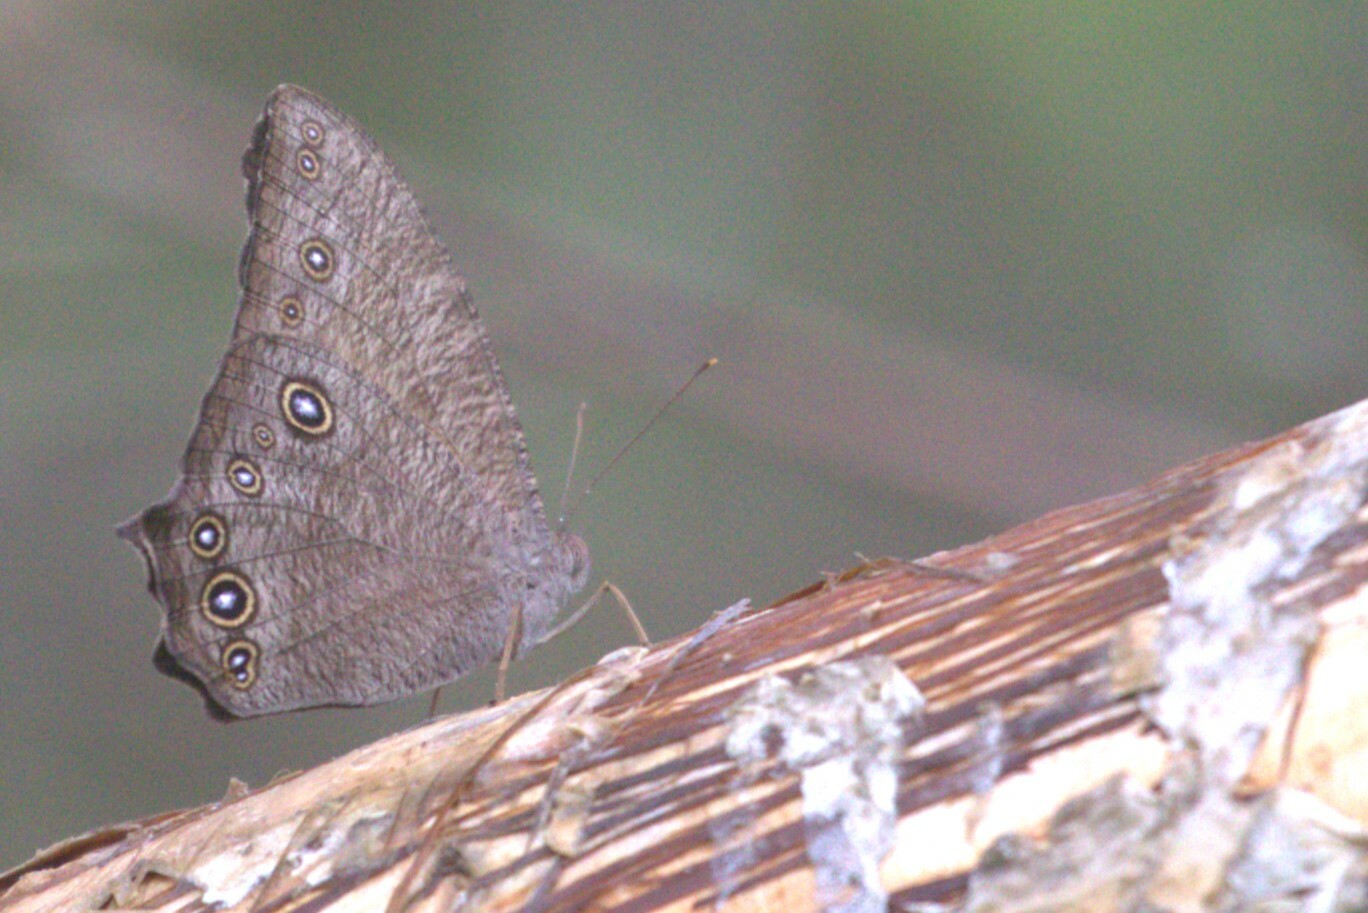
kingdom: Animalia
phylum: Arthropoda
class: Insecta
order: Lepidoptera
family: Nymphalidae
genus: Melanitis
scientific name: Melanitis leda
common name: Twilight brown
